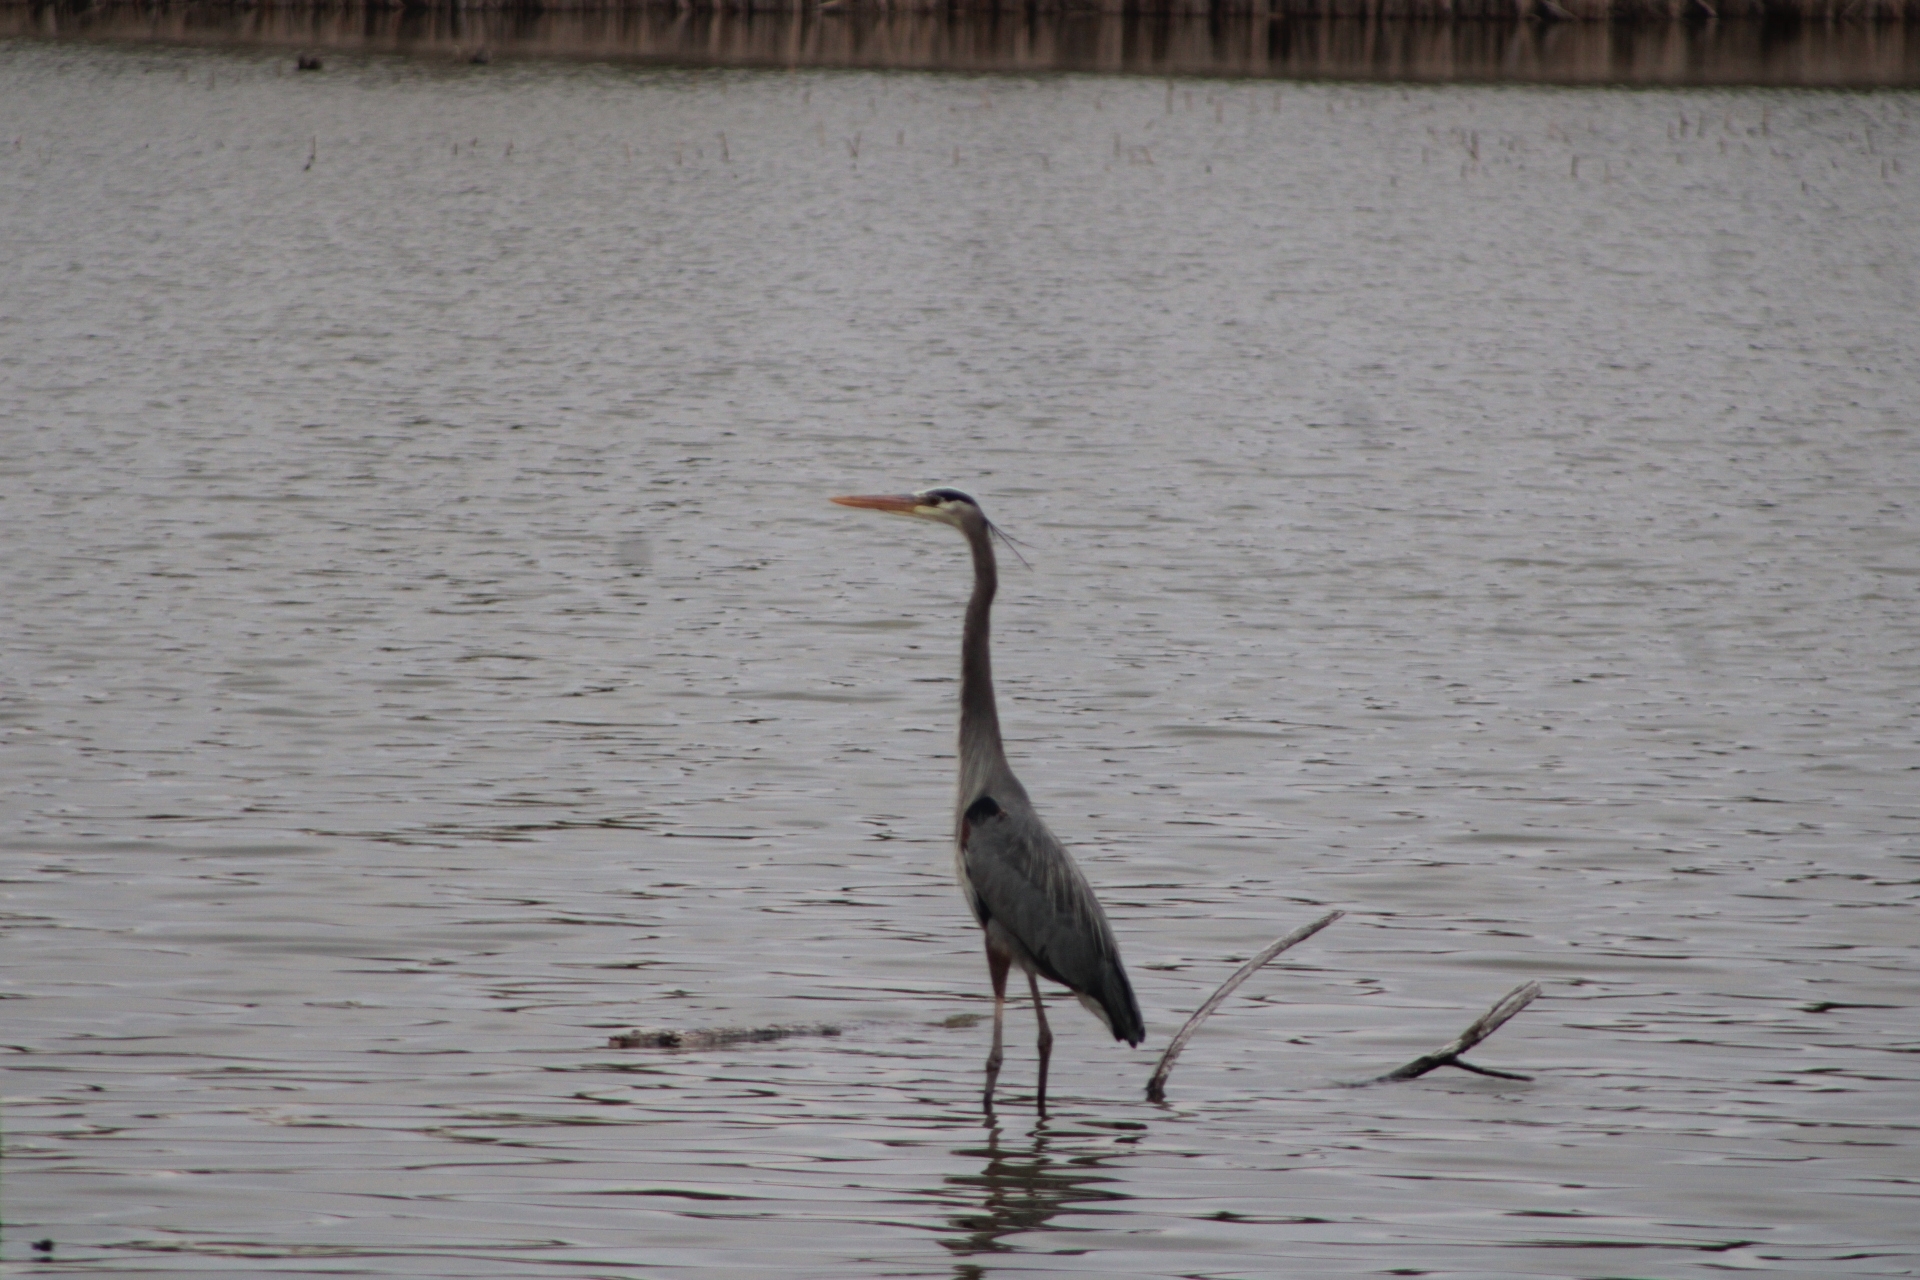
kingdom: Animalia
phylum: Chordata
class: Aves
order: Pelecaniformes
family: Ardeidae
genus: Ardea
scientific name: Ardea herodias
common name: Great blue heron
